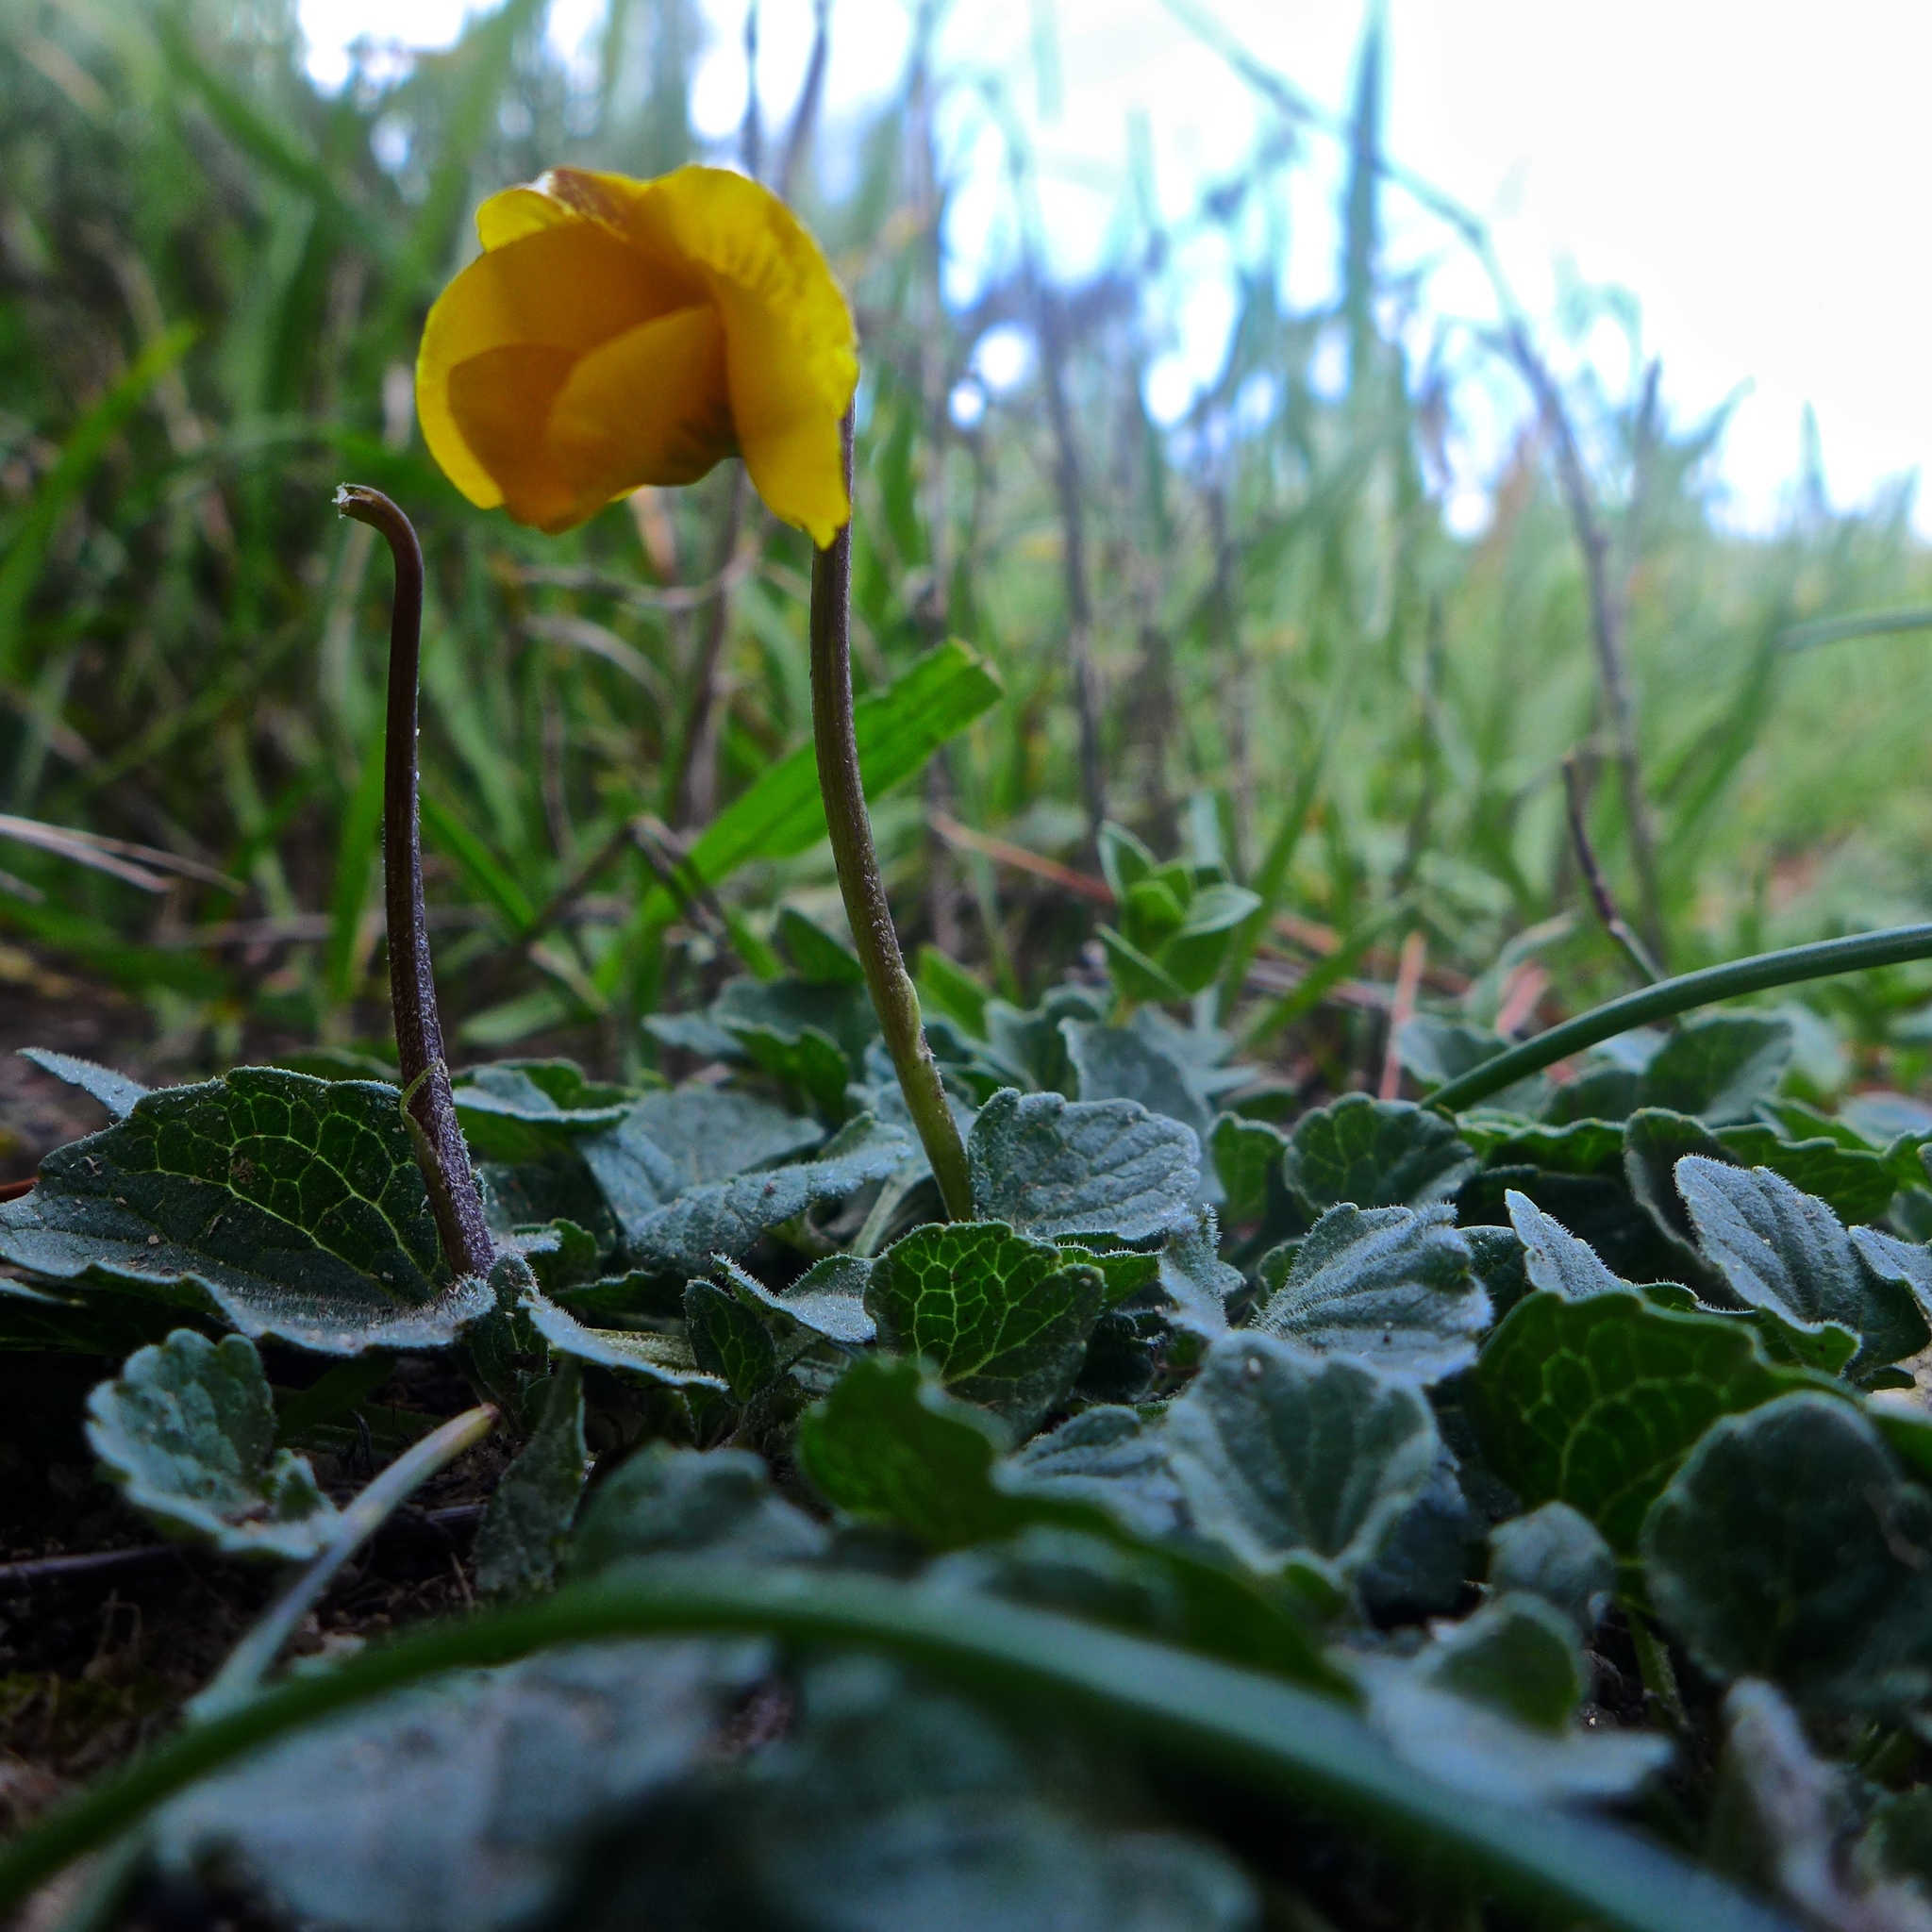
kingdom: Plantae
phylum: Tracheophyta
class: Magnoliopsida
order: Malpighiales
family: Violaceae
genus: Viola
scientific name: Viola pedunculata
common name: California golden violet
